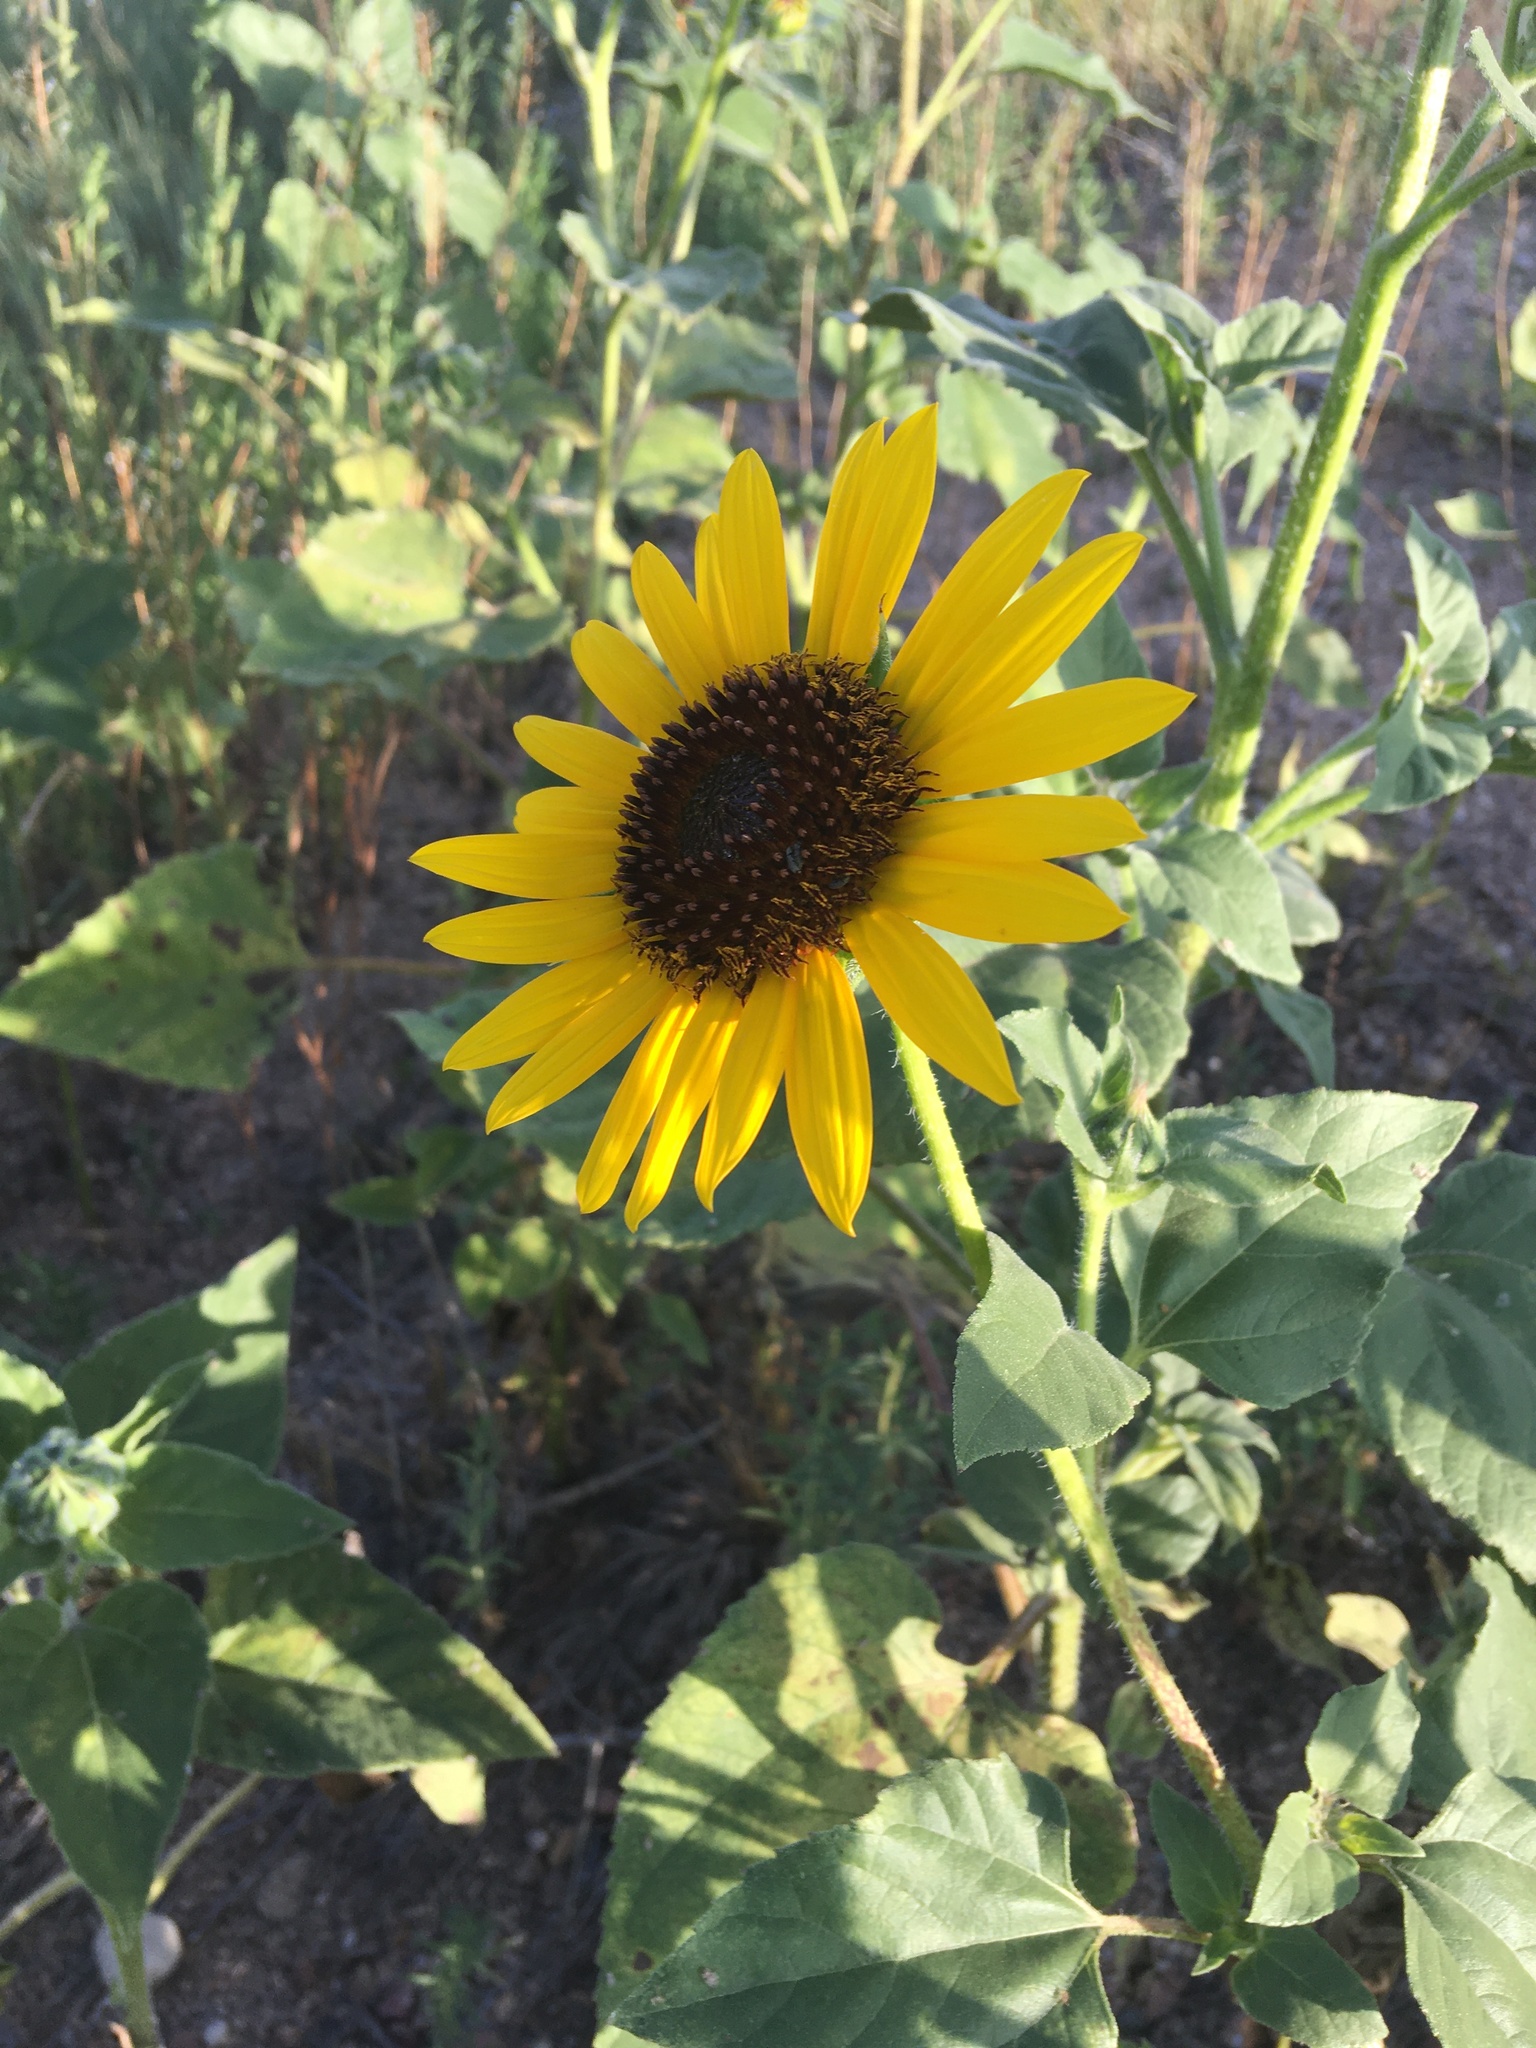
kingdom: Plantae
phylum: Tracheophyta
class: Magnoliopsida
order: Asterales
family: Asteraceae
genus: Helianthus
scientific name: Helianthus annuus
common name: Sunflower
